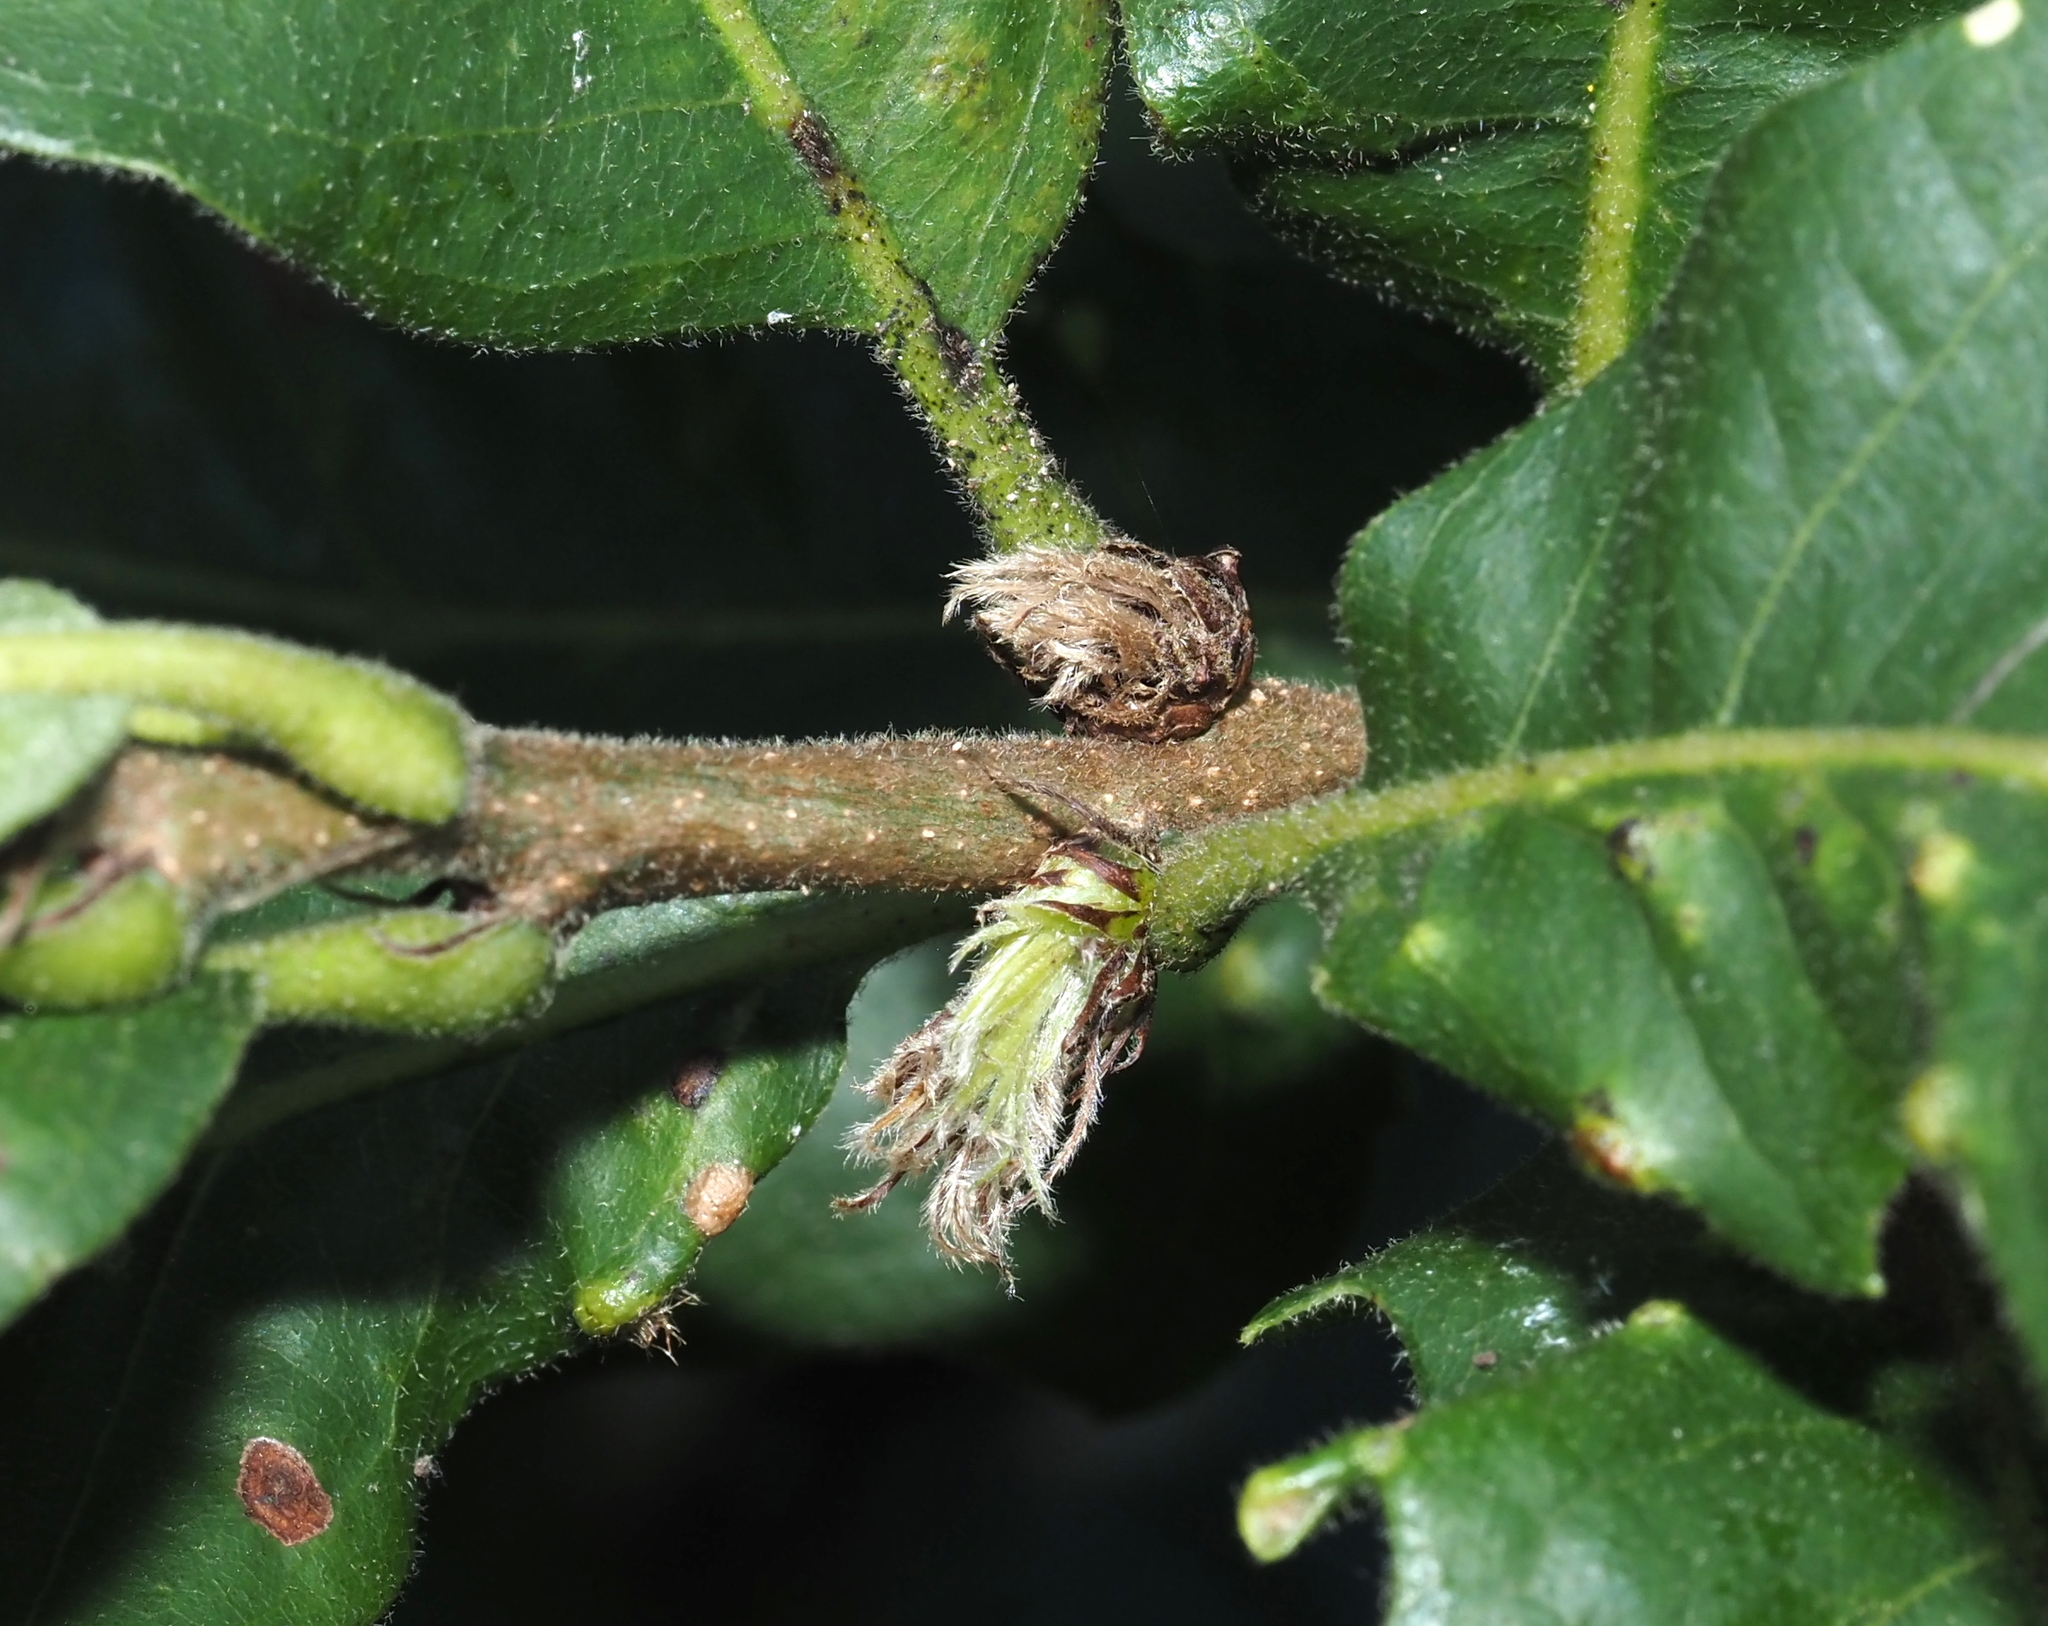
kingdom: Animalia
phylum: Arthropoda
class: Insecta
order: Hymenoptera
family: Cynipidae
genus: Andricus
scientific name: Andricus
